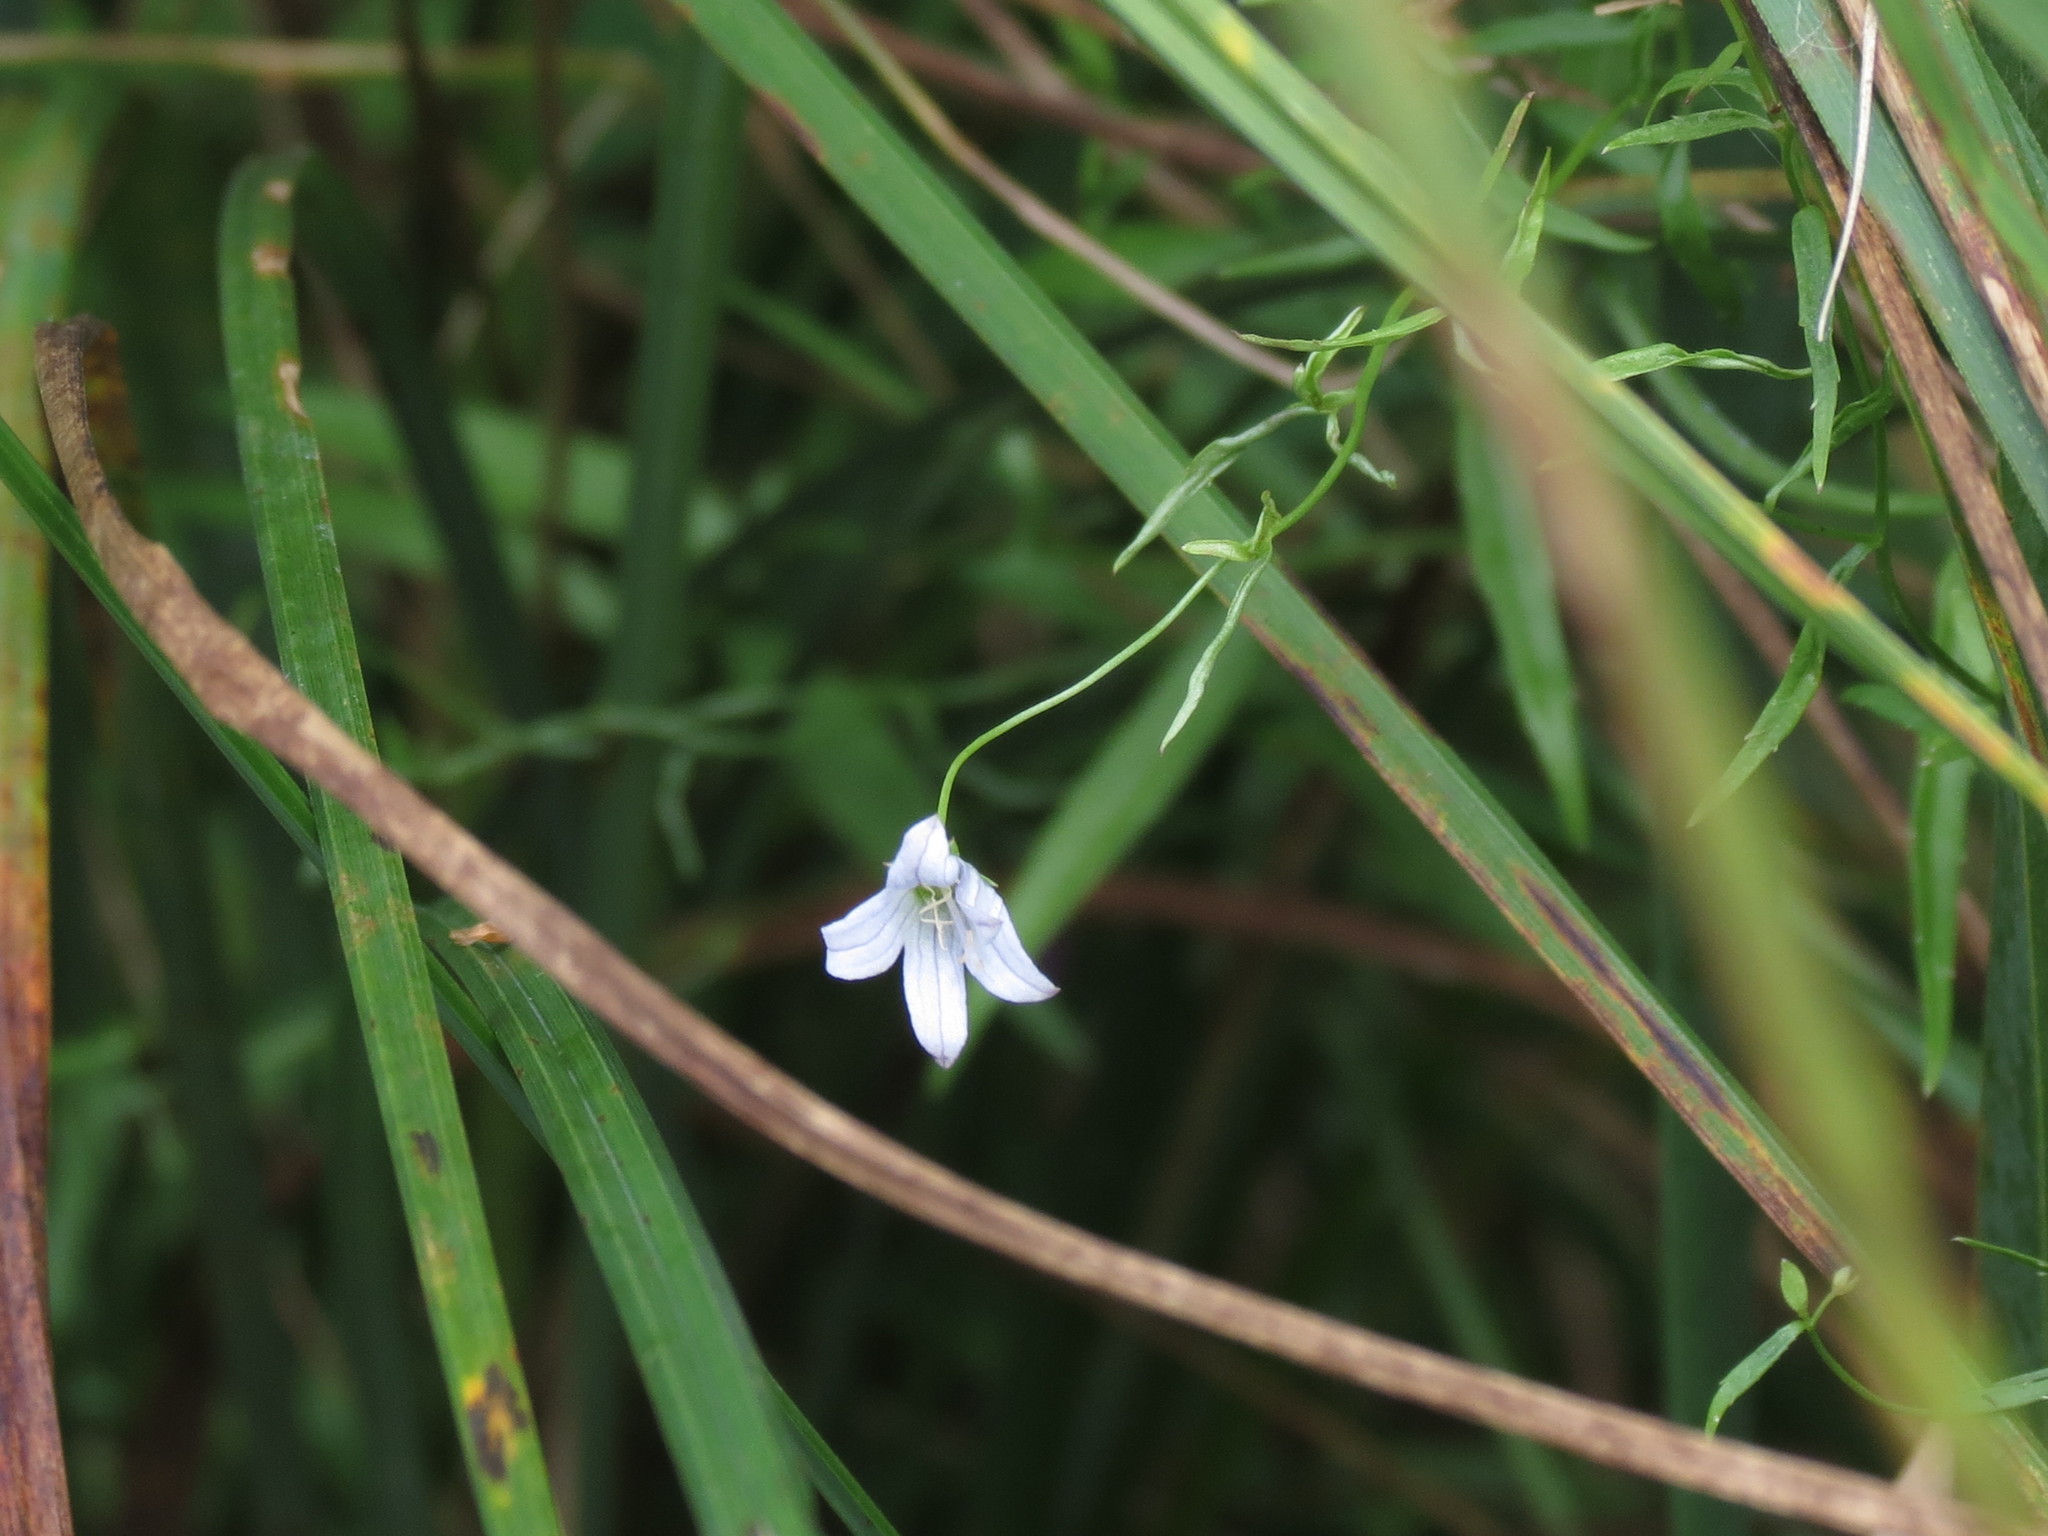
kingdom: Plantae
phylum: Tracheophyta
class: Magnoliopsida
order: Asterales
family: Campanulaceae
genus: Palustricodon
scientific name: Palustricodon aparinoides
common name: Bedstraw bellflower
